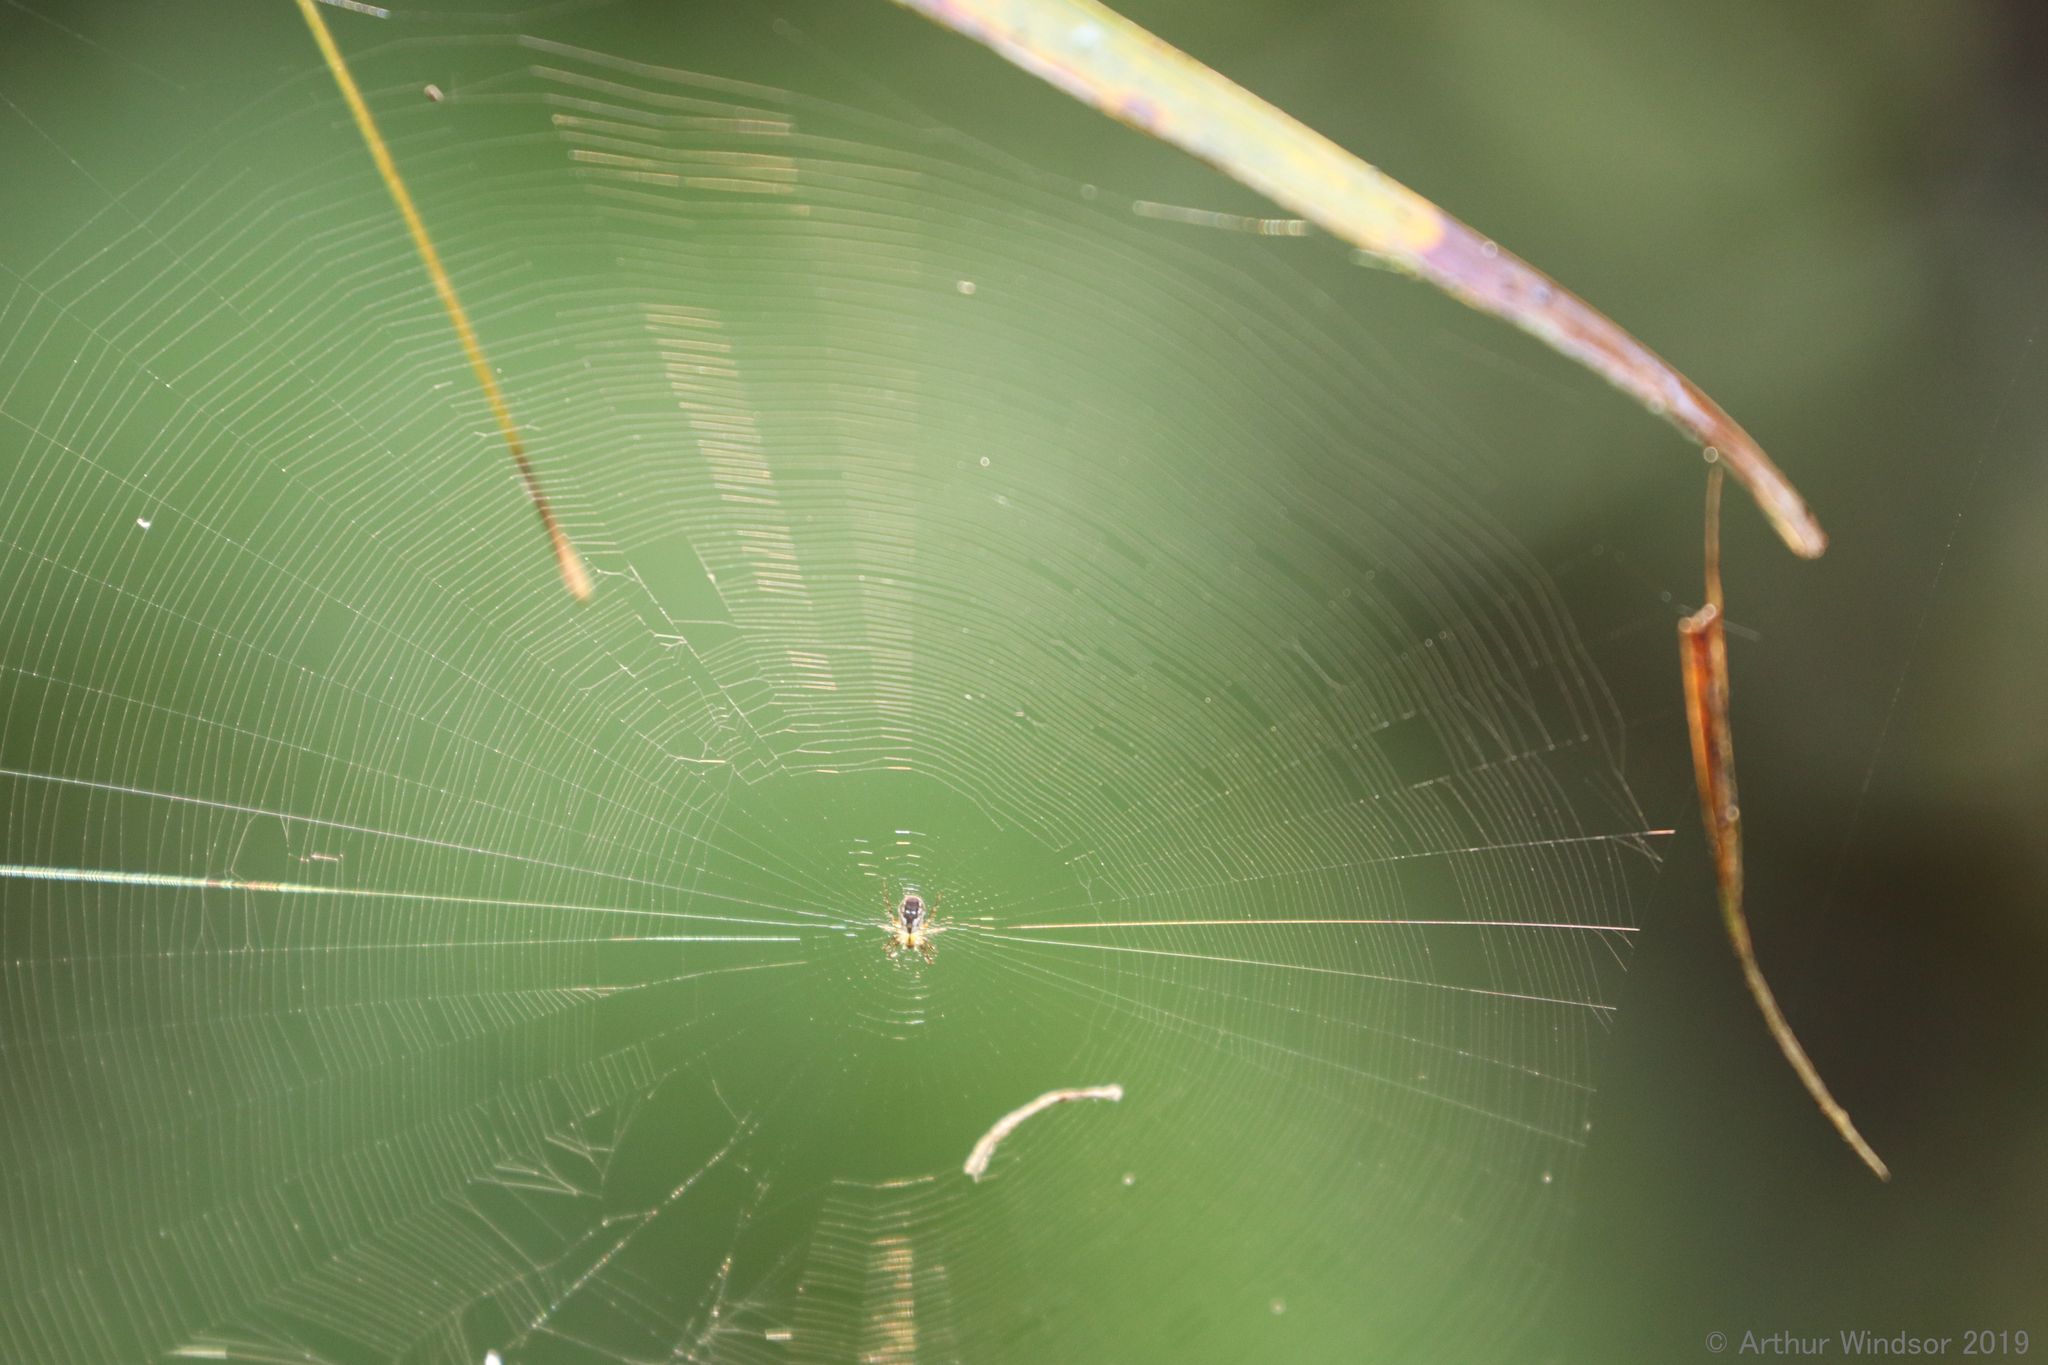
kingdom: Animalia
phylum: Arthropoda
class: Arachnida
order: Araneae
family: Araneidae
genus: Mangora
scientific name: Mangora placida
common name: Tuft-legged orbweaver
